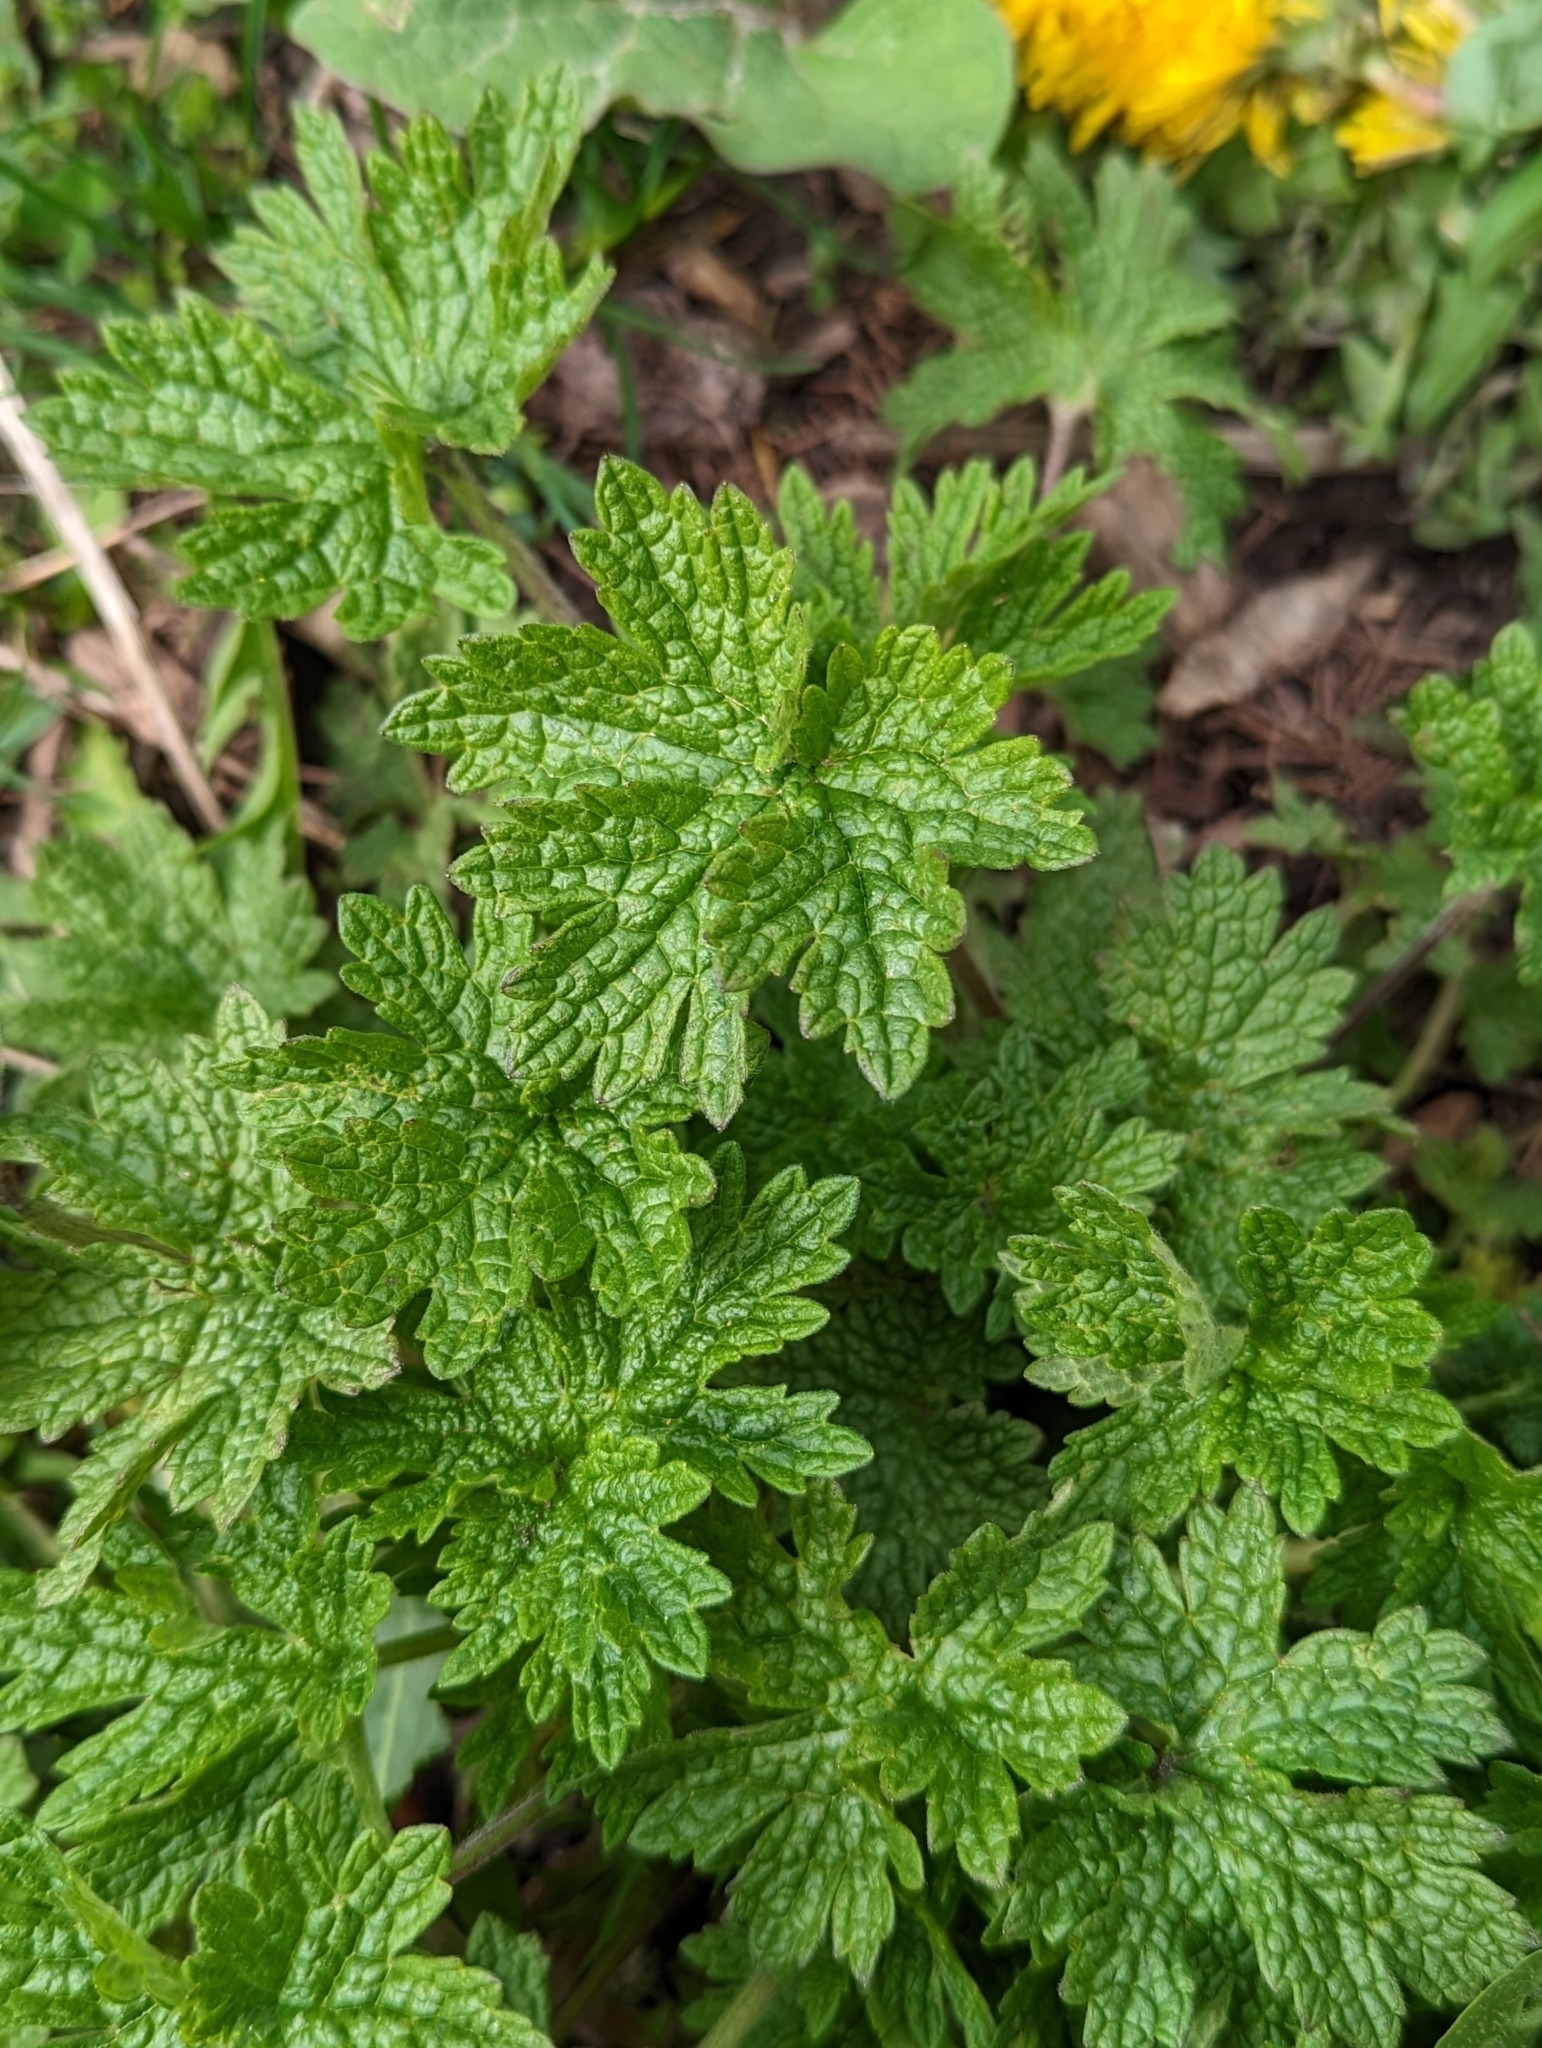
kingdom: Plantae
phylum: Tracheophyta
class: Magnoliopsida
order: Lamiales
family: Lamiaceae
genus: Leonurus
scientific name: Leonurus cardiaca
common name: Motherwort
